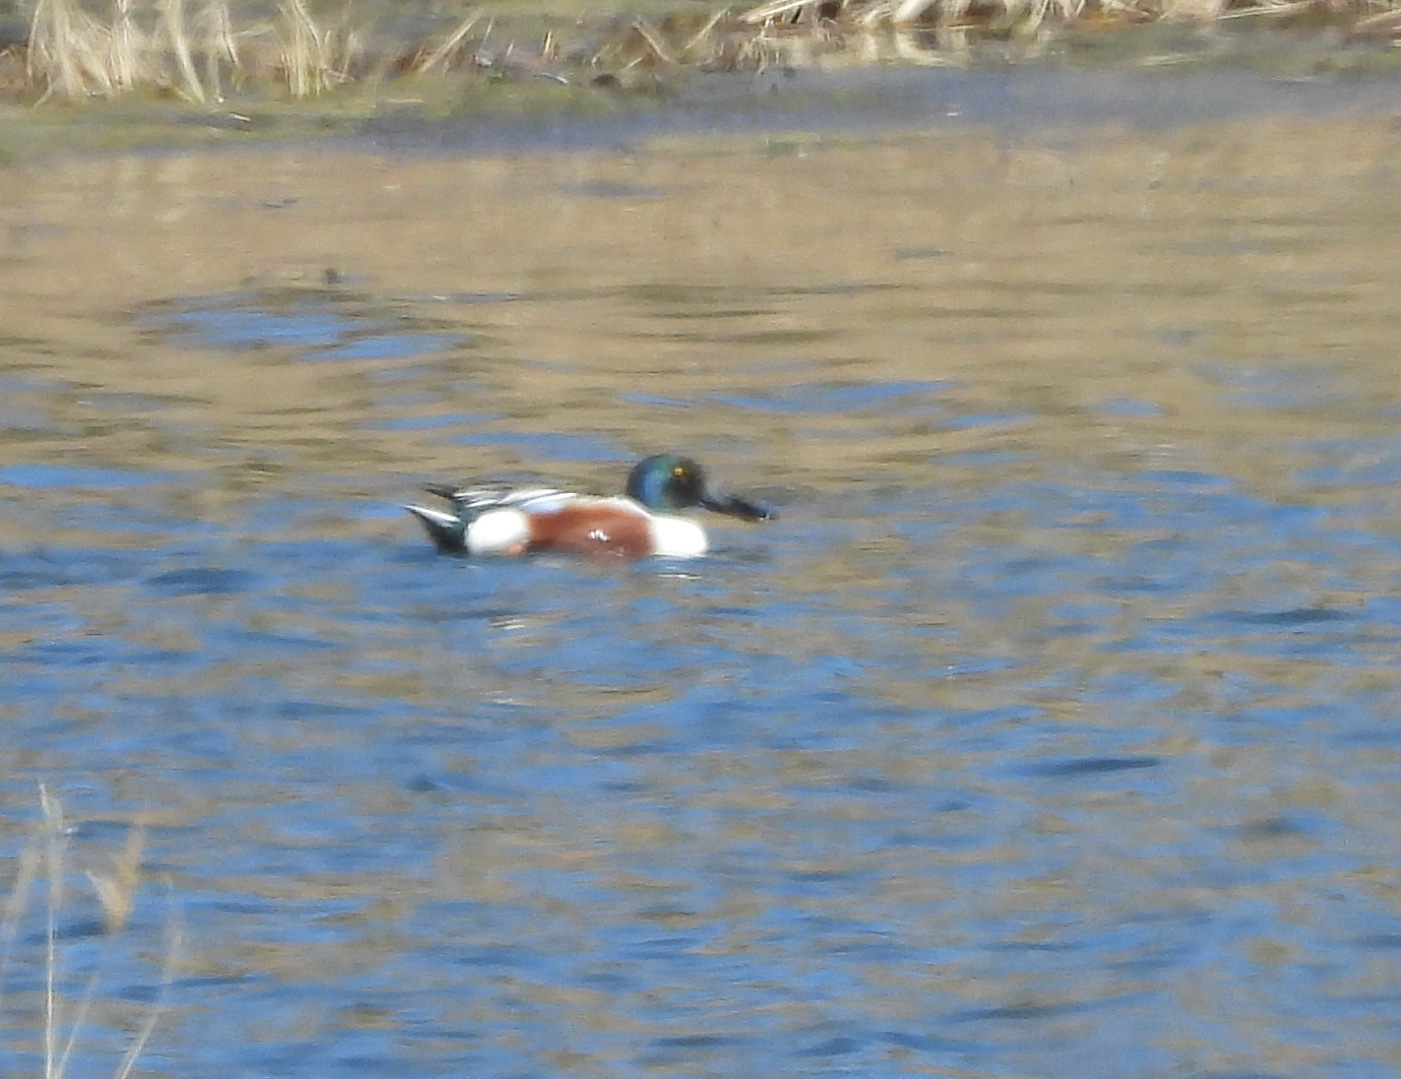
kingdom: Animalia
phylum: Chordata
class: Aves
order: Anseriformes
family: Anatidae
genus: Spatula
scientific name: Spatula clypeata
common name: Northern shoveler
